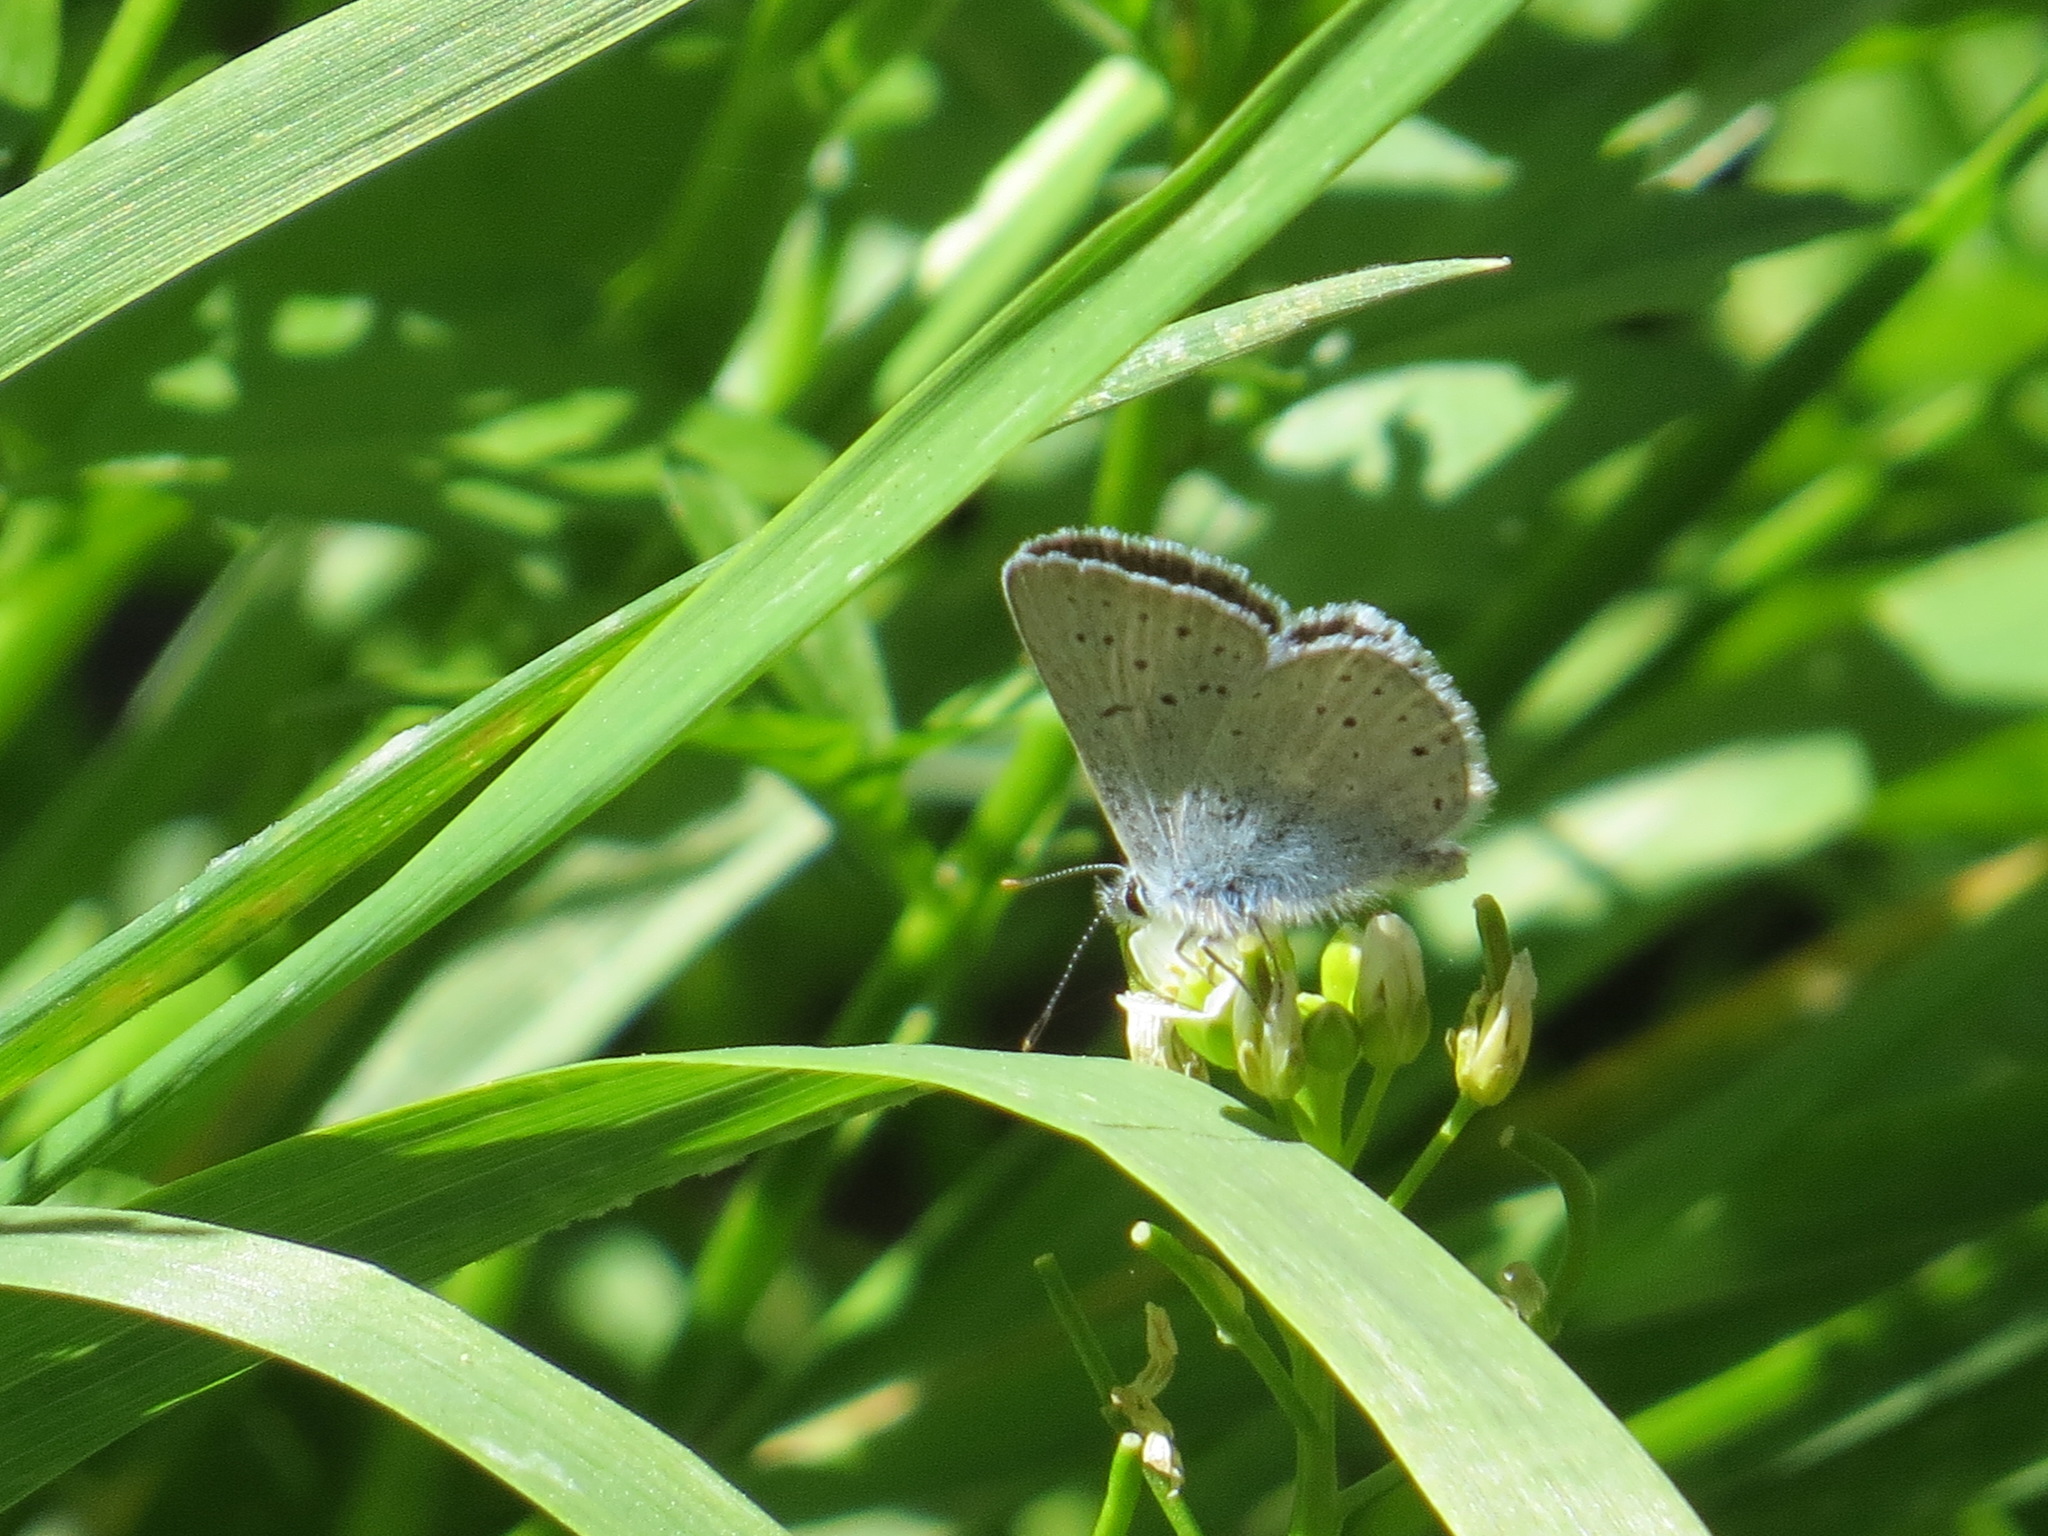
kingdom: Animalia
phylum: Arthropoda
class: Insecta
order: Lepidoptera
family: Lycaenidae
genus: Icaricia
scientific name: Icaricia saepiolus
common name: Greenish blue
